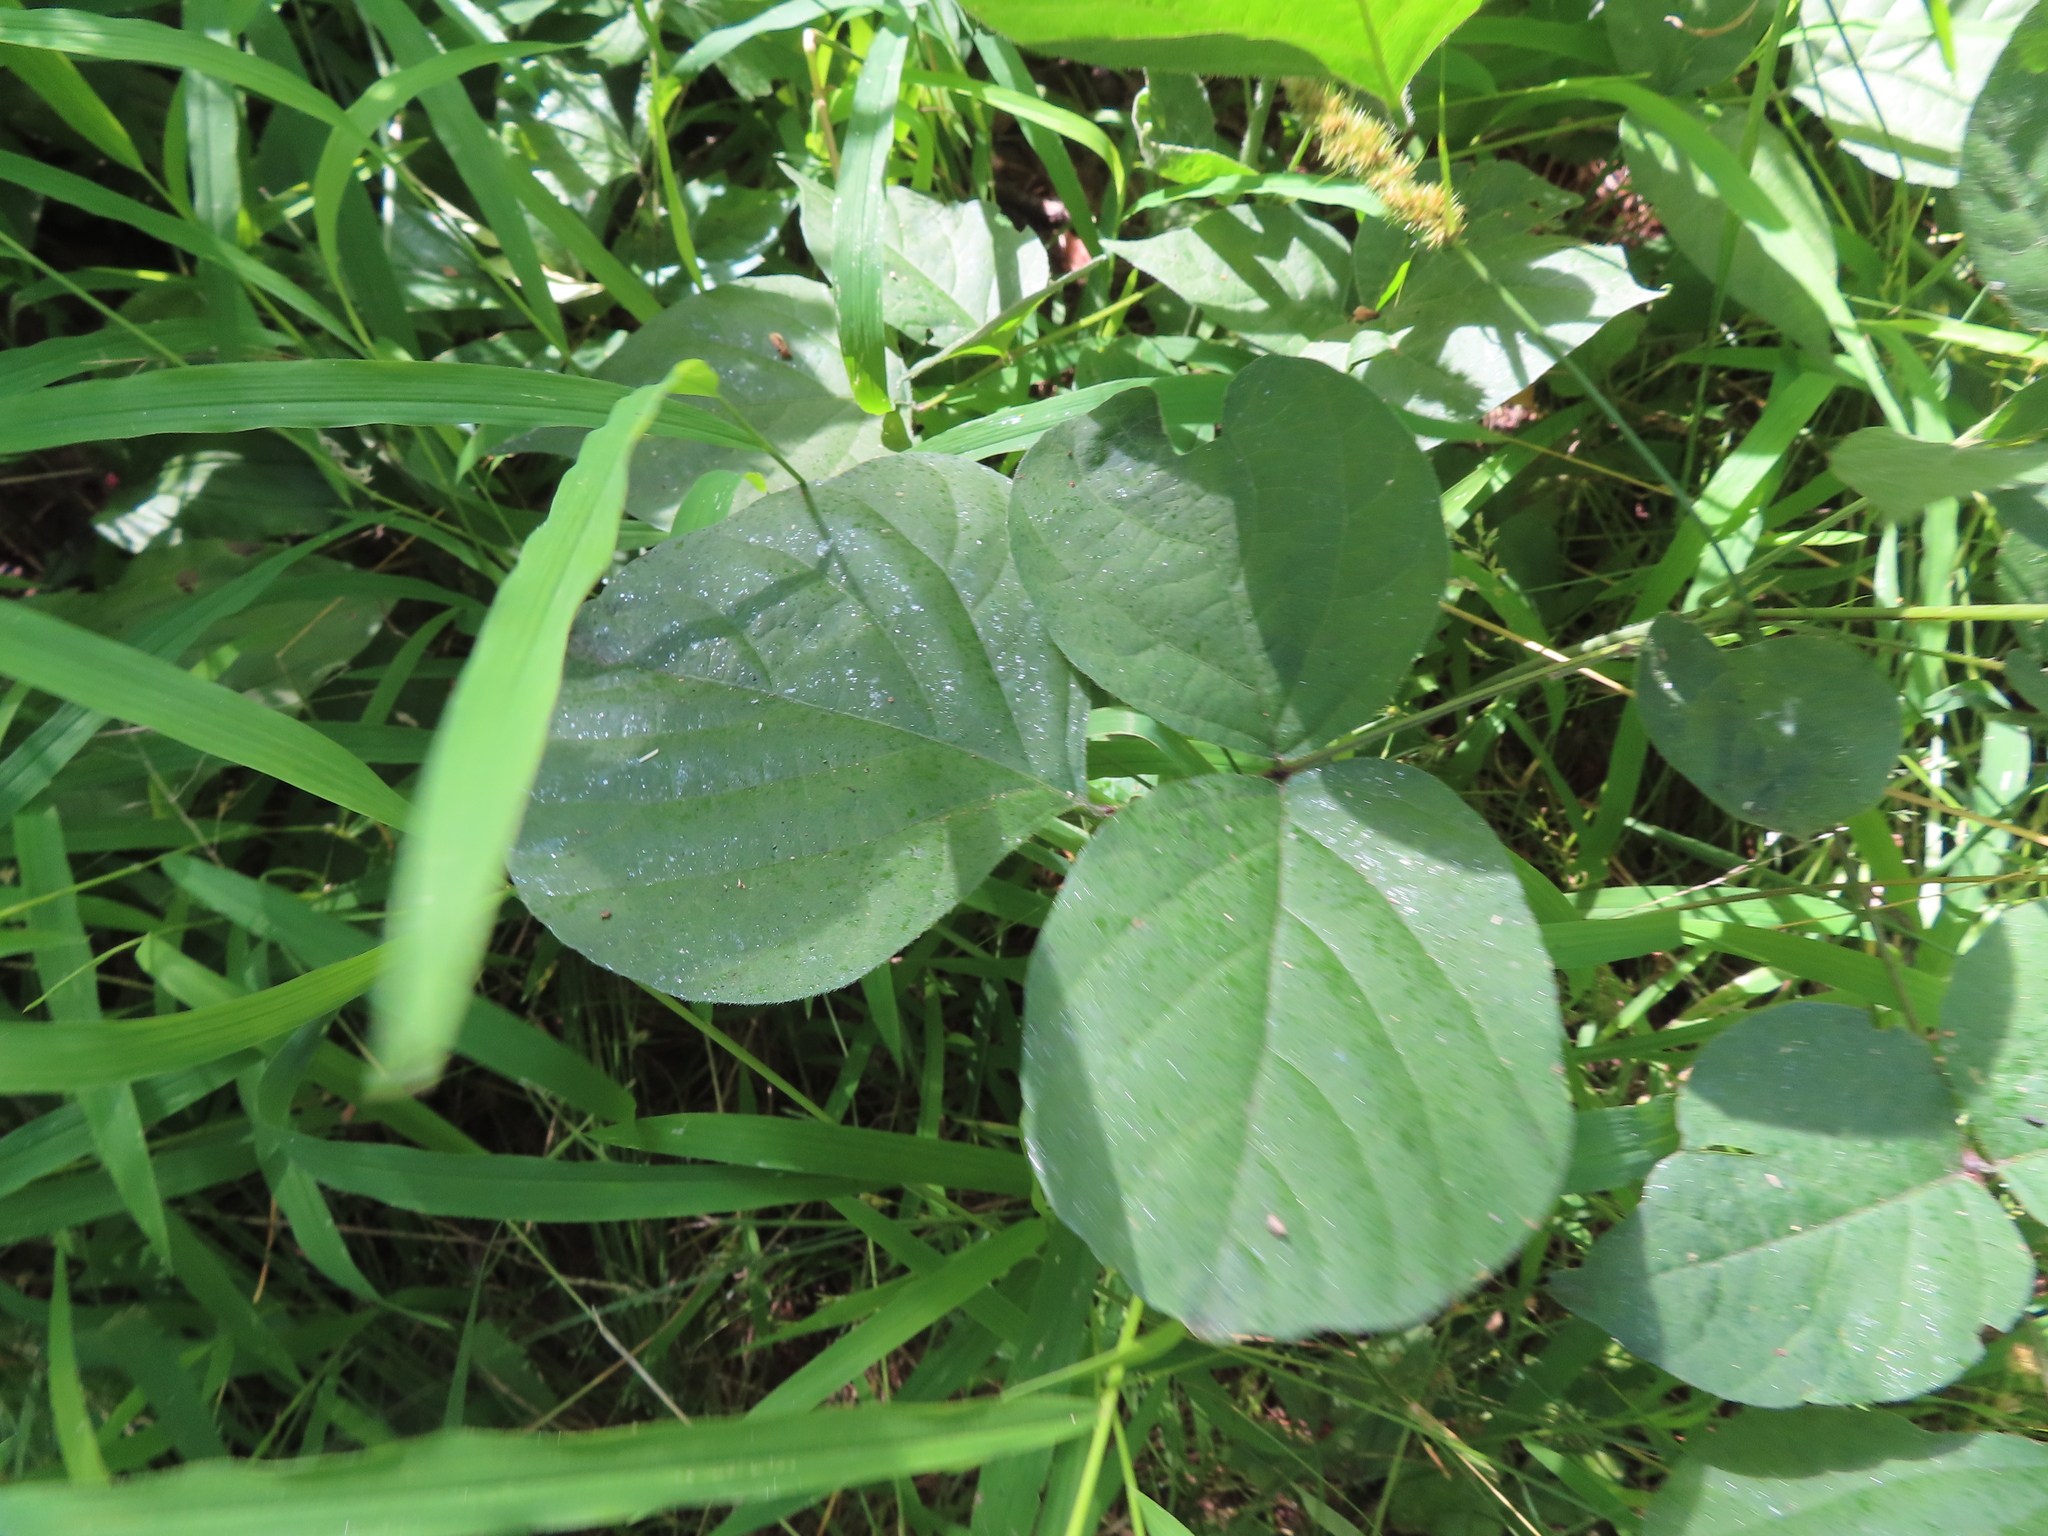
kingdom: Plantae
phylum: Tracheophyta
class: Magnoliopsida
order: Fabales
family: Fabaceae
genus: Hylodesmum
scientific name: Hylodesmum glutinosum
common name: Clustered-leaved tick-trefoil
